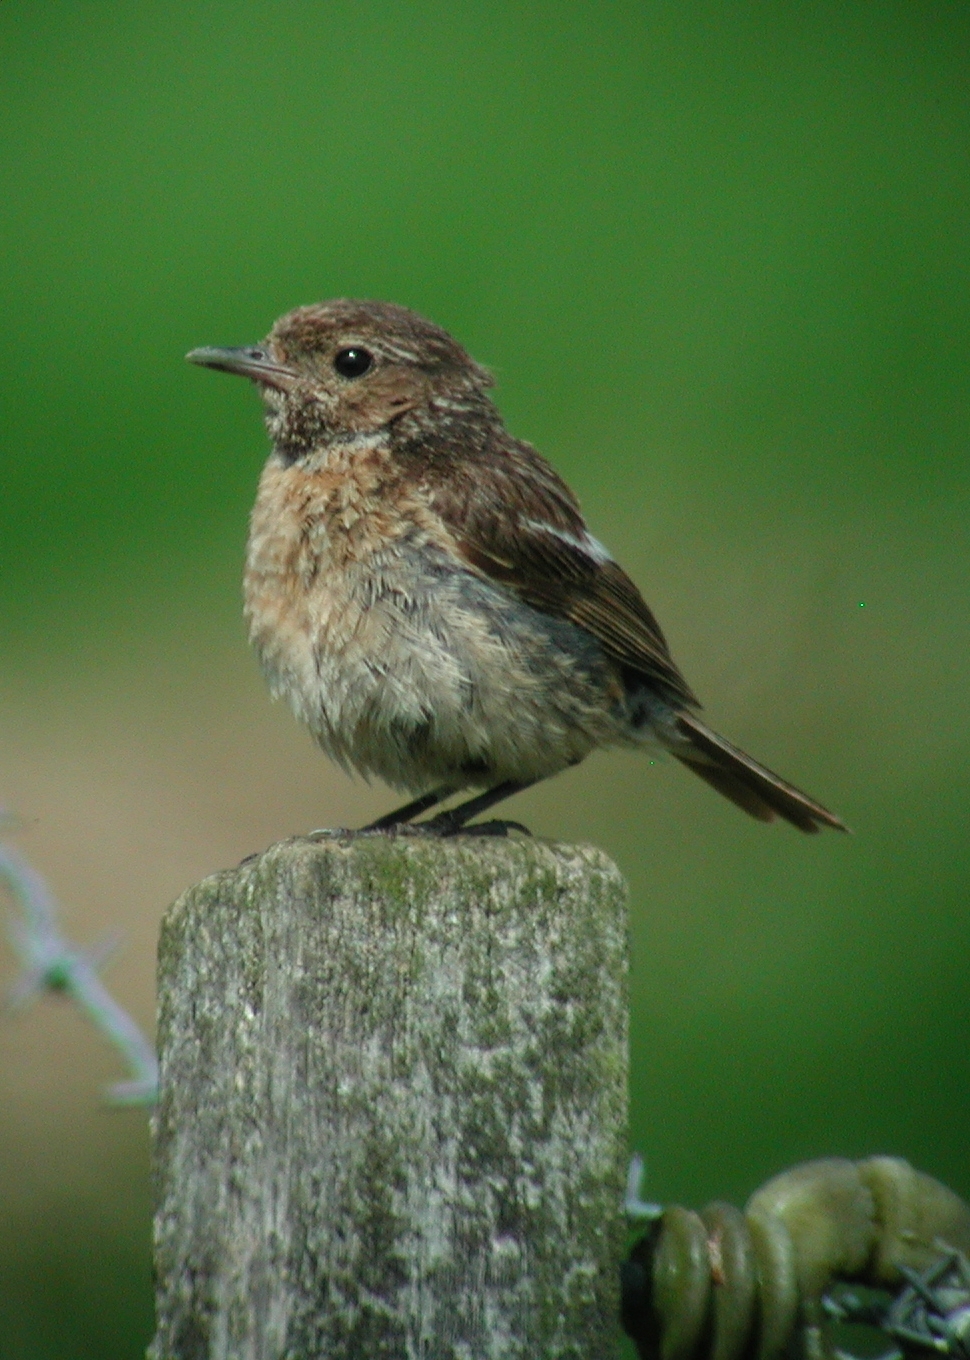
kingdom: Animalia
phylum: Chordata
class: Aves
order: Passeriformes
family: Muscicapidae
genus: Saxicola
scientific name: Saxicola rubicola
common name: European stonechat
